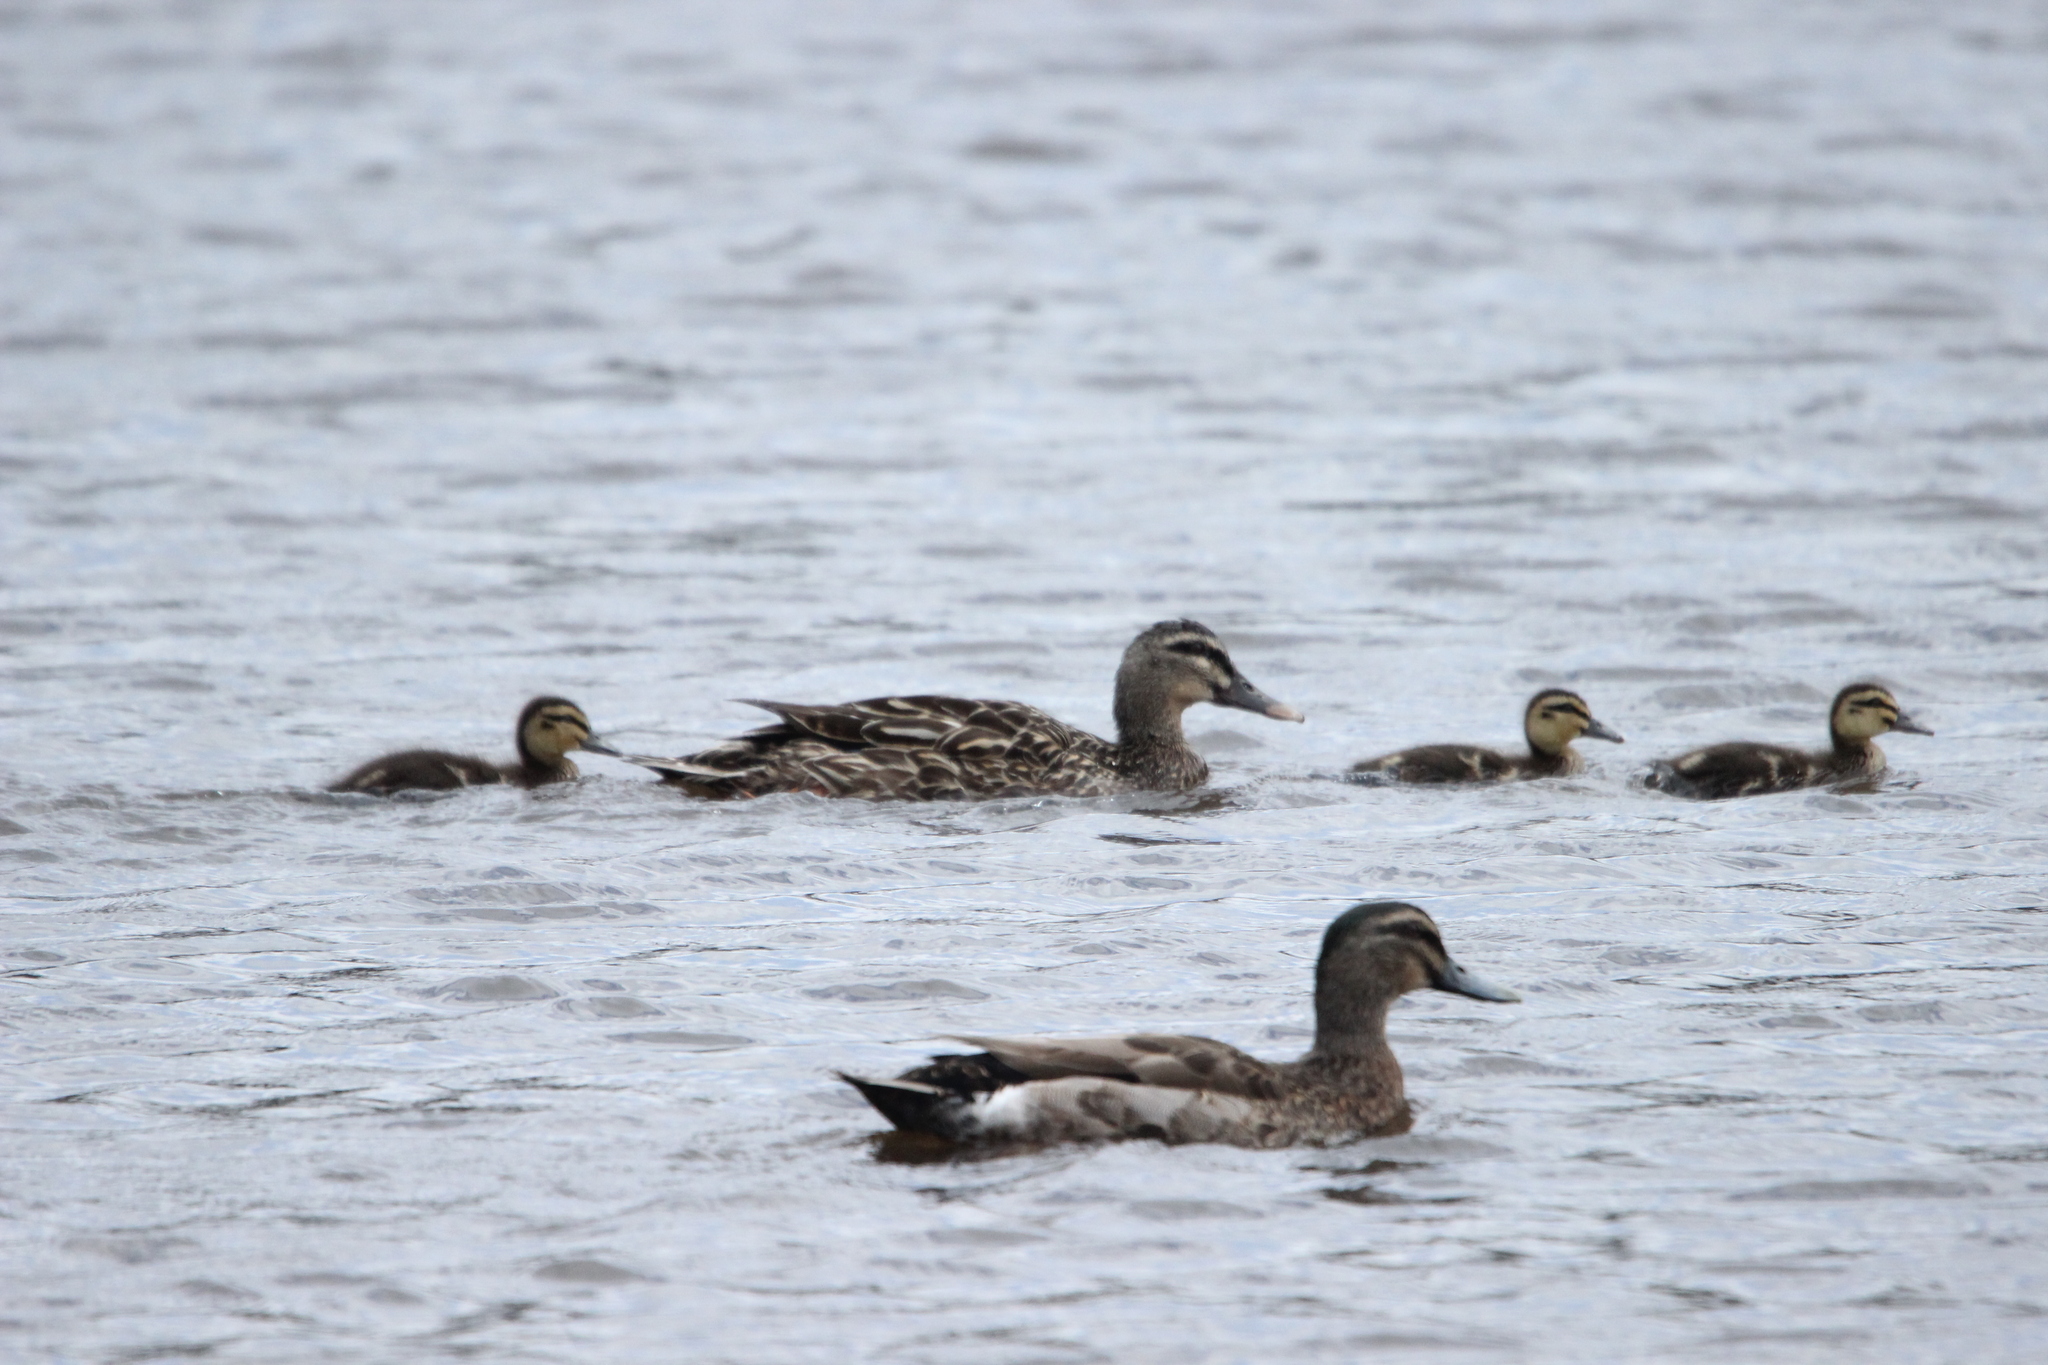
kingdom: Animalia
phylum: Chordata
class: Aves
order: Anseriformes
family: Anatidae
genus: Anas
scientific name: Anas
